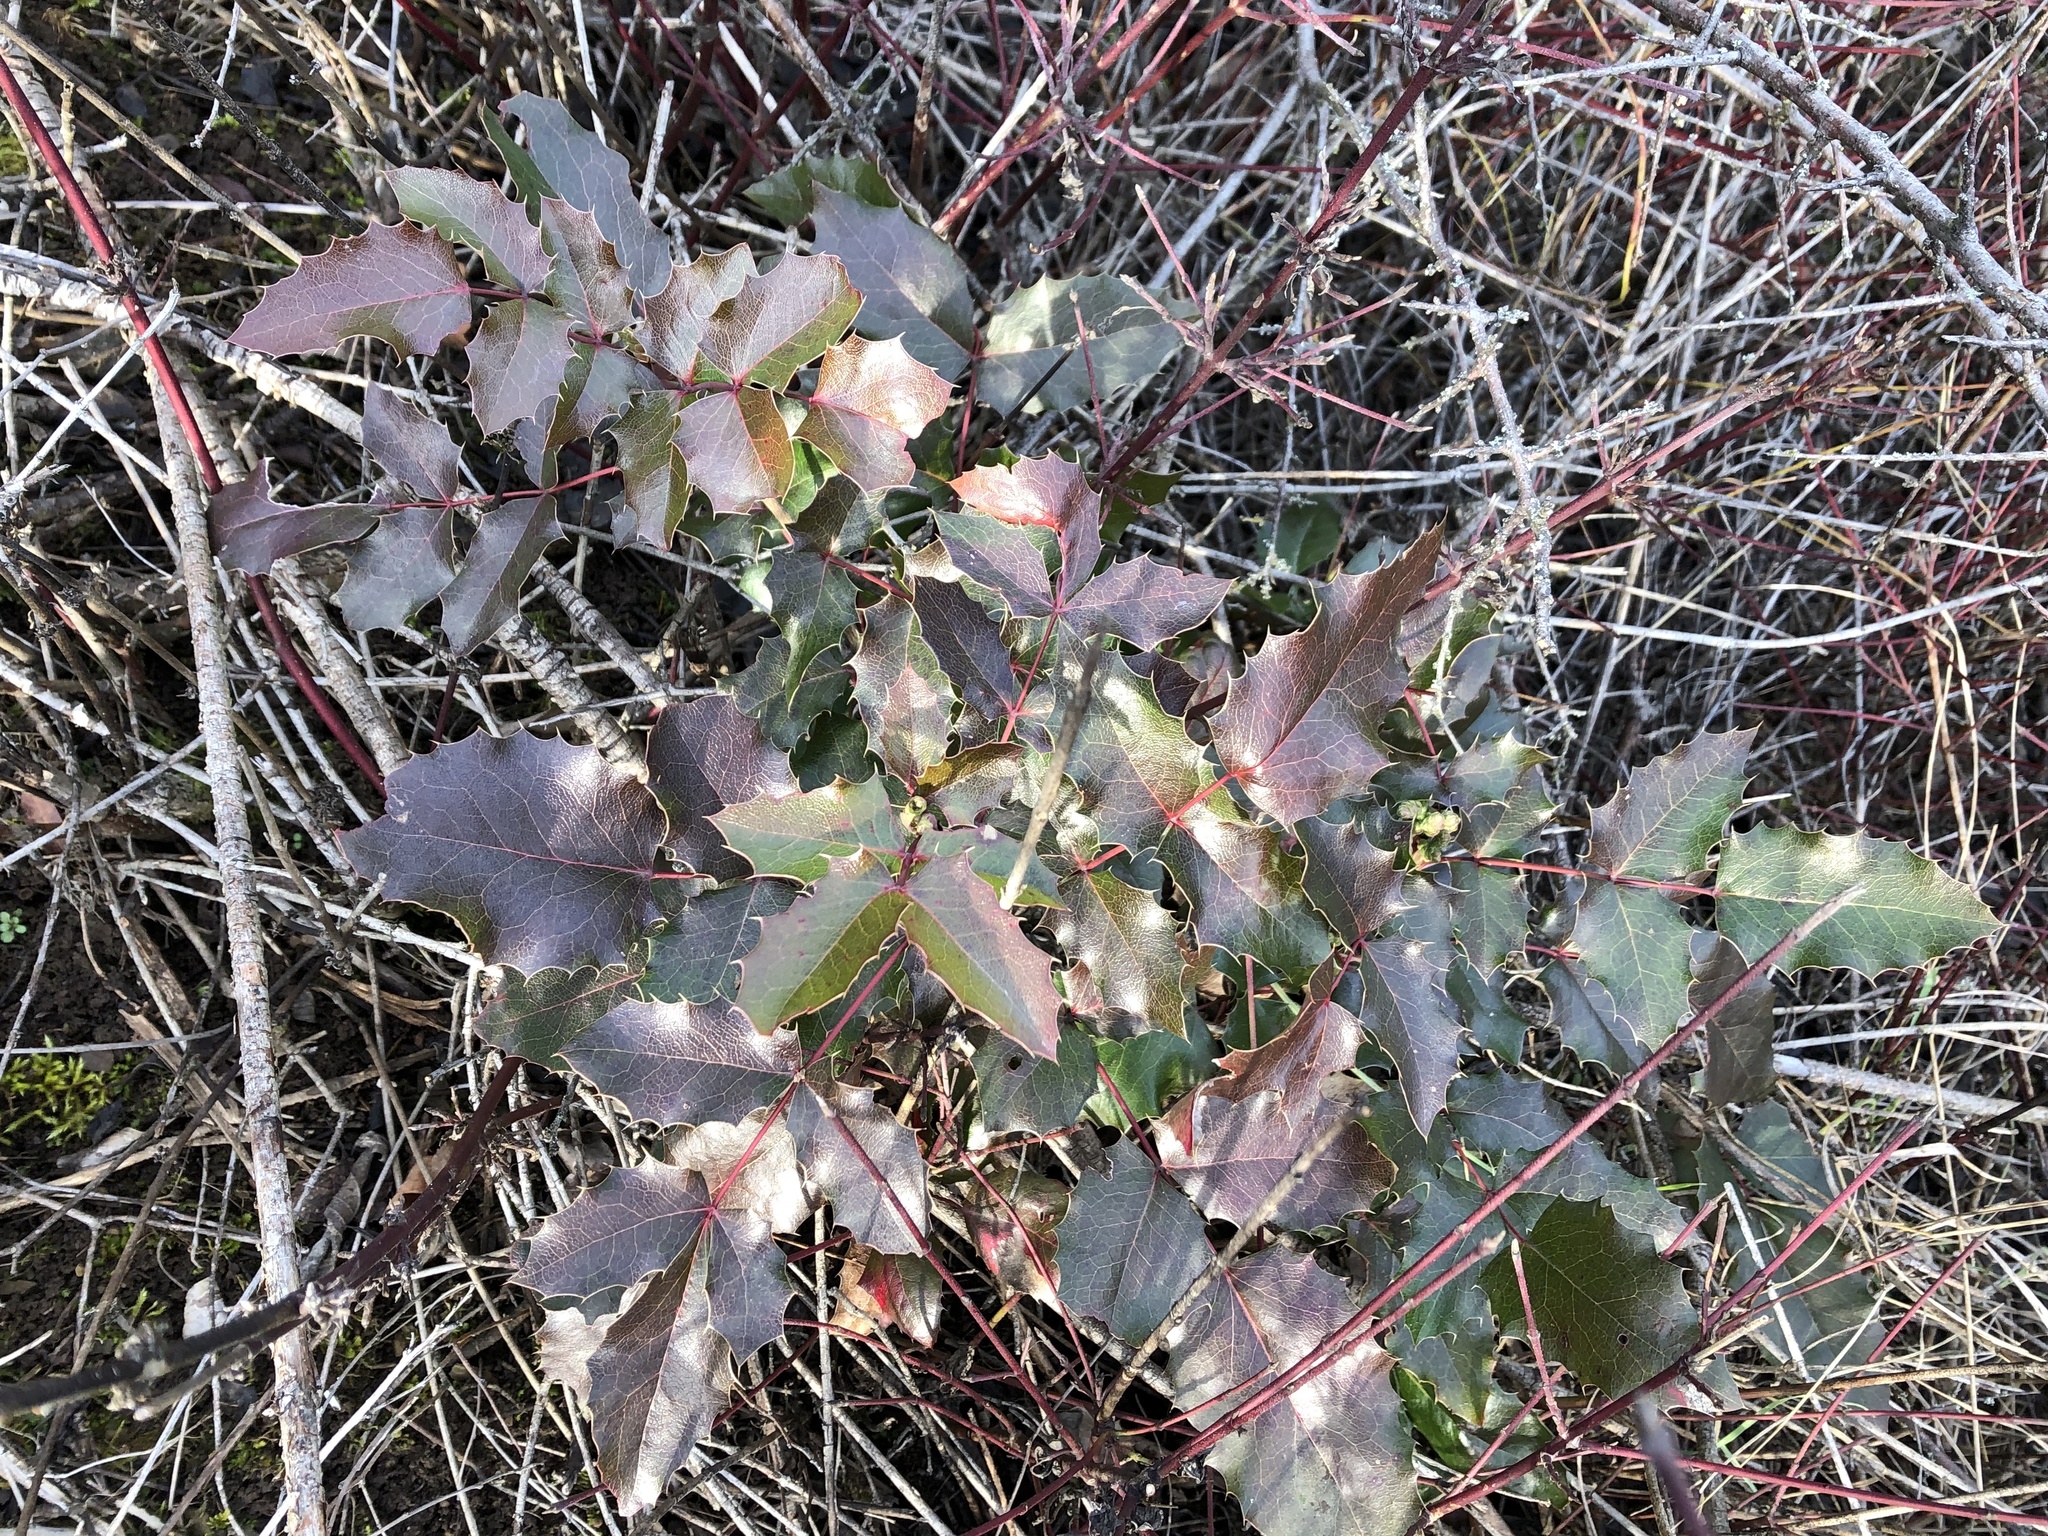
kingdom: Plantae
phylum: Tracheophyta
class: Magnoliopsida
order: Ranunculales
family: Berberidaceae
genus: Mahonia
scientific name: Mahonia aquifolium
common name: Oregon-grape
